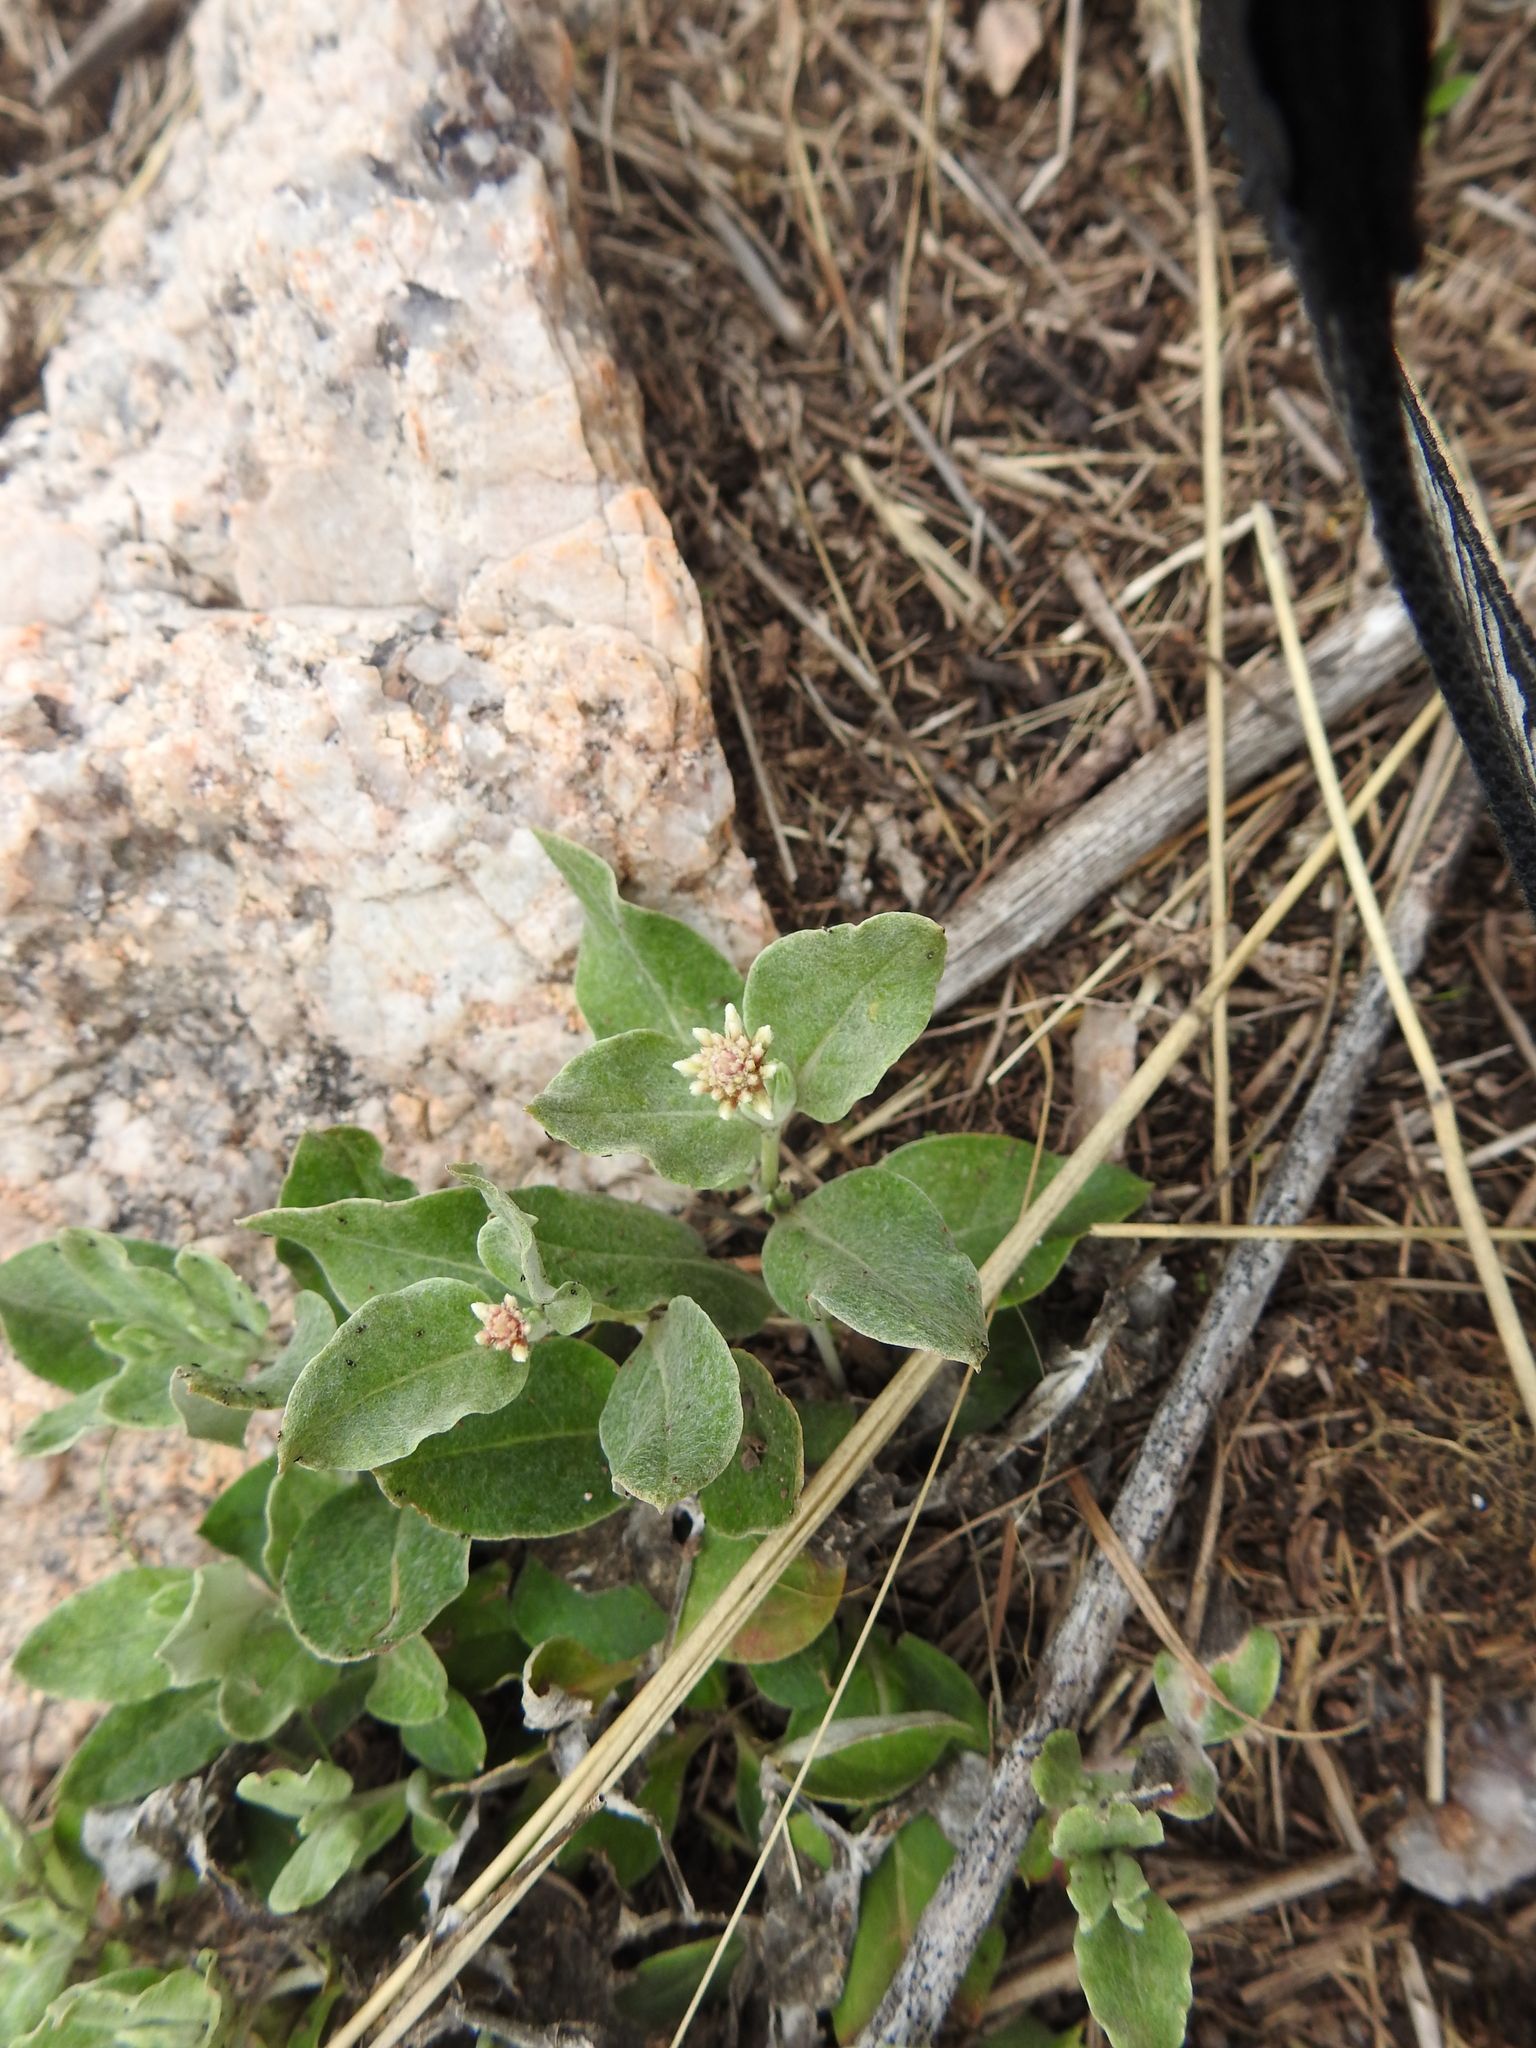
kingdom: Plantae
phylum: Tracheophyta
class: Magnoliopsida
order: Caryophyllales
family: Amaranthaceae
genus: Pfaffia
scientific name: Pfaffia gnaphalioides
